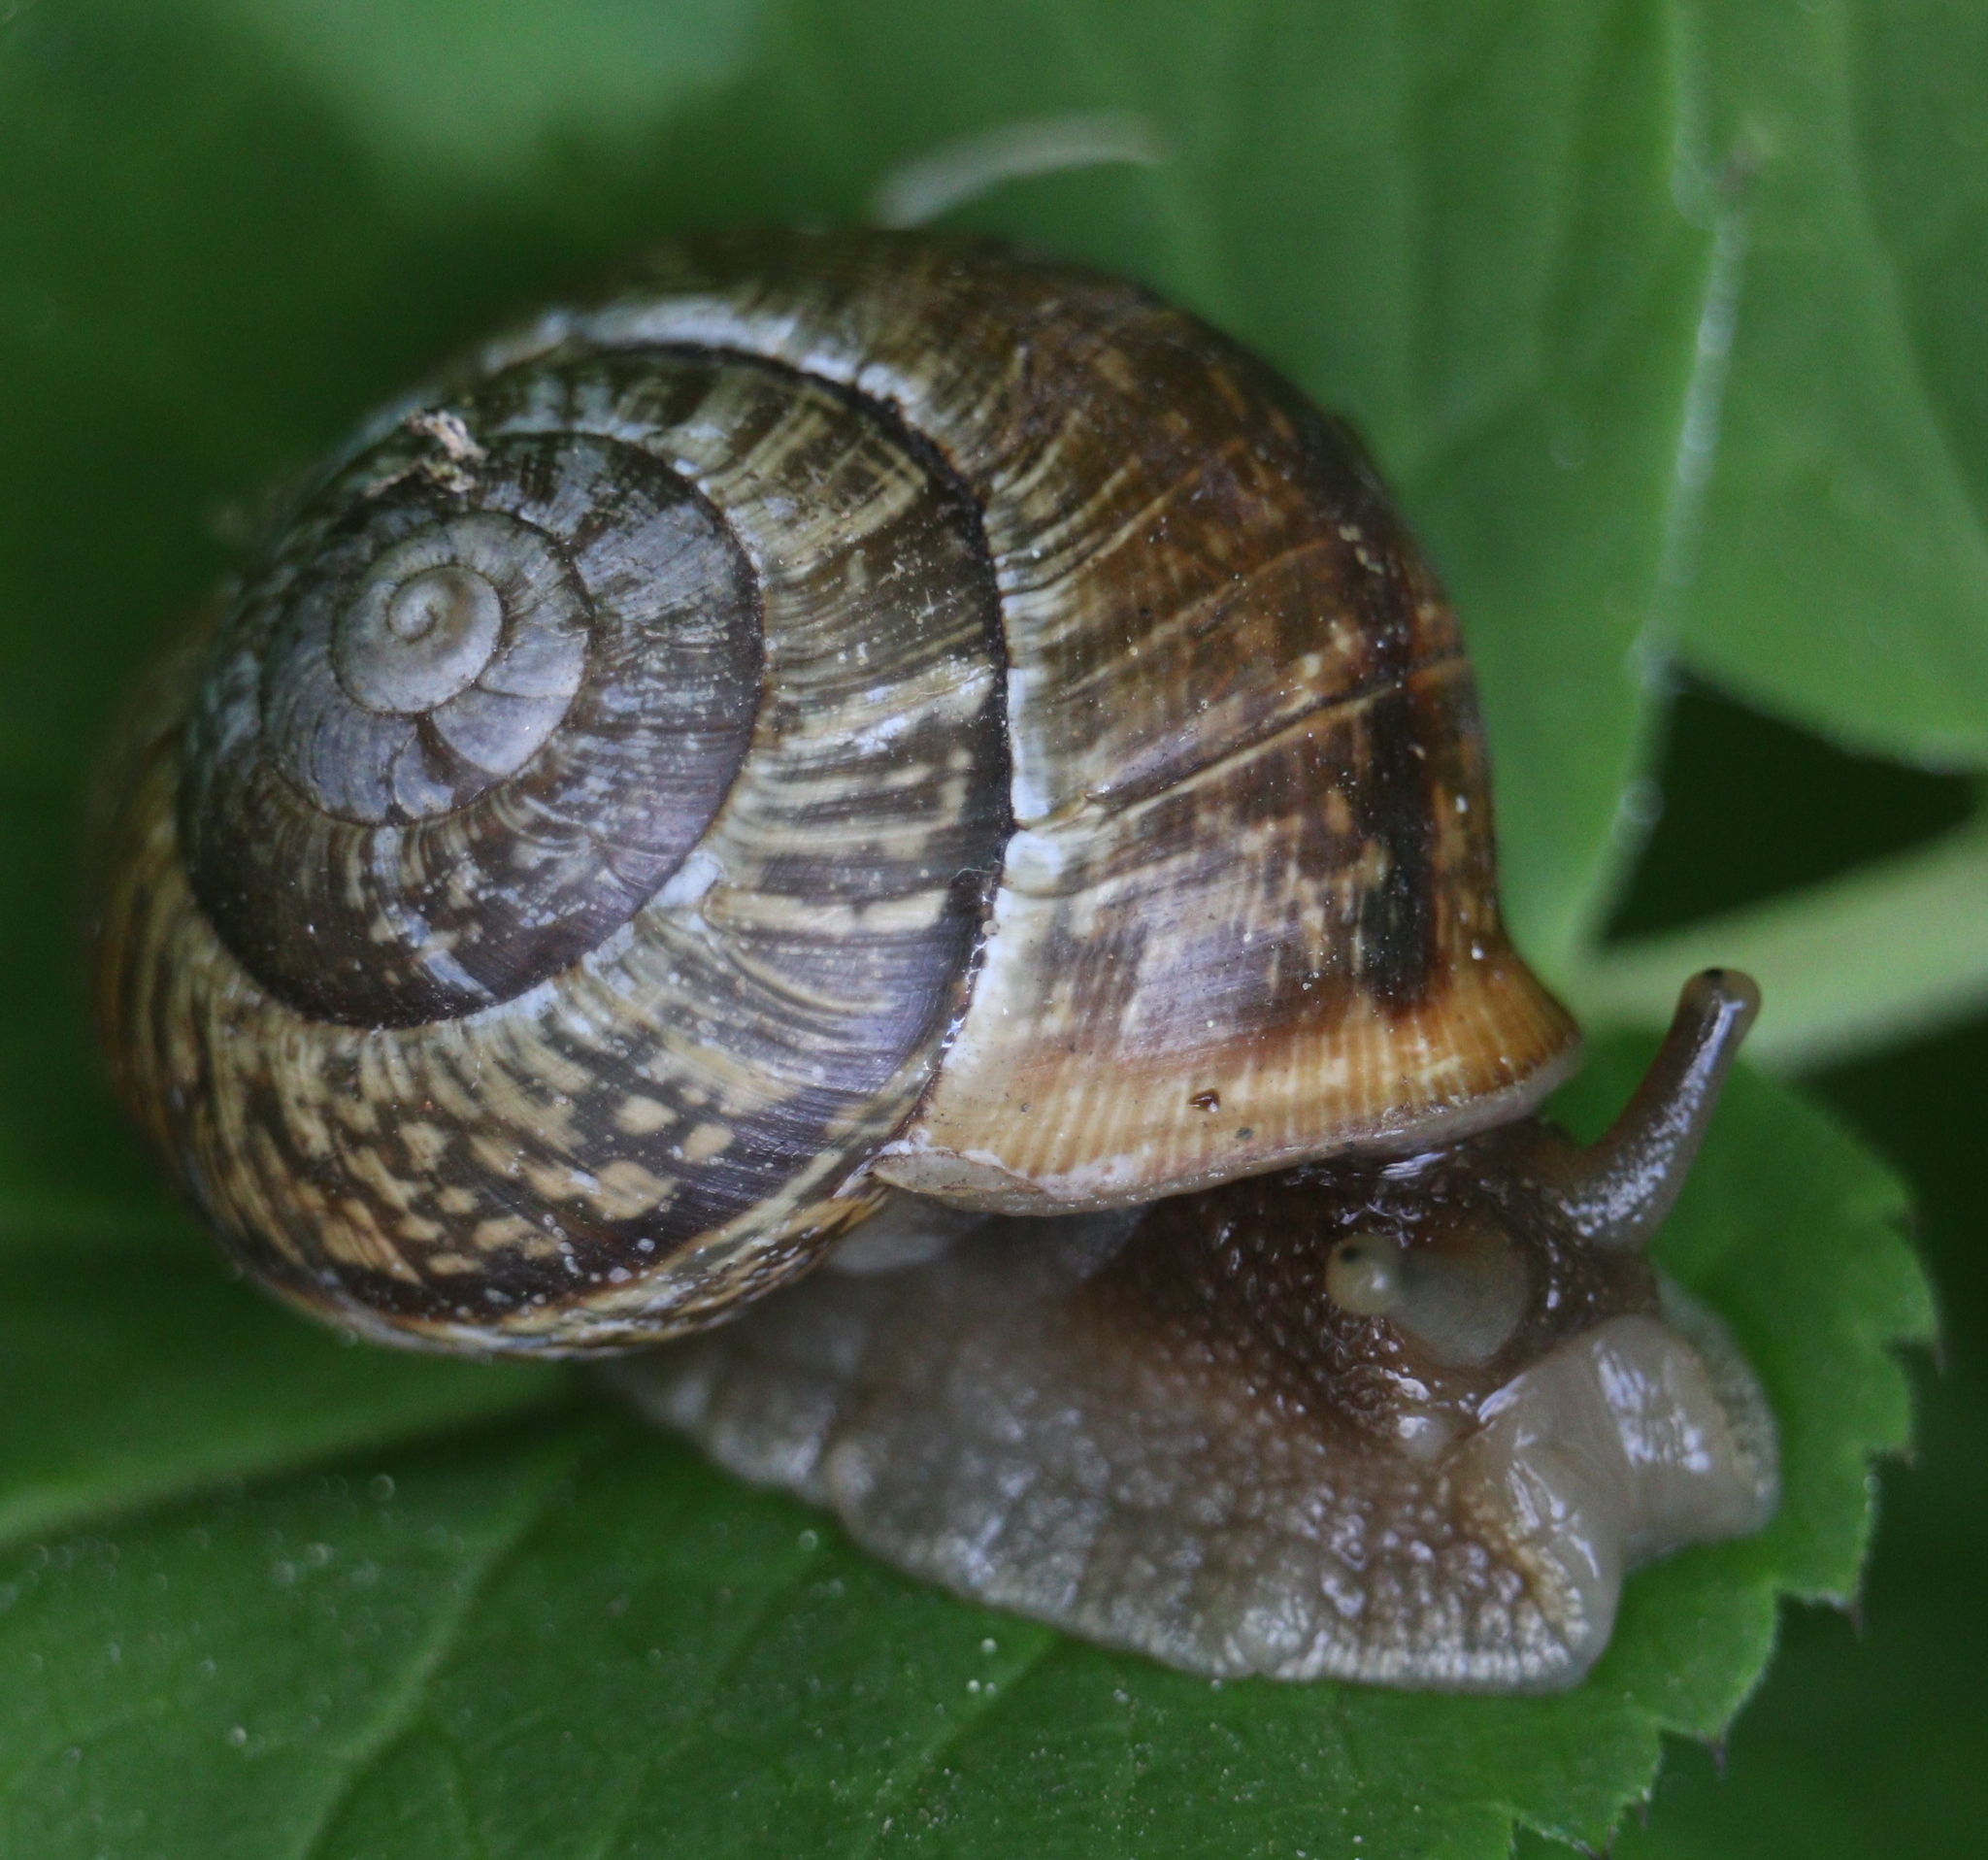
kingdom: Animalia
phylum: Mollusca
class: Gastropoda
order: Stylommatophora
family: Helicidae
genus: Arianta
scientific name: Arianta arbustorum
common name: Copse snail
